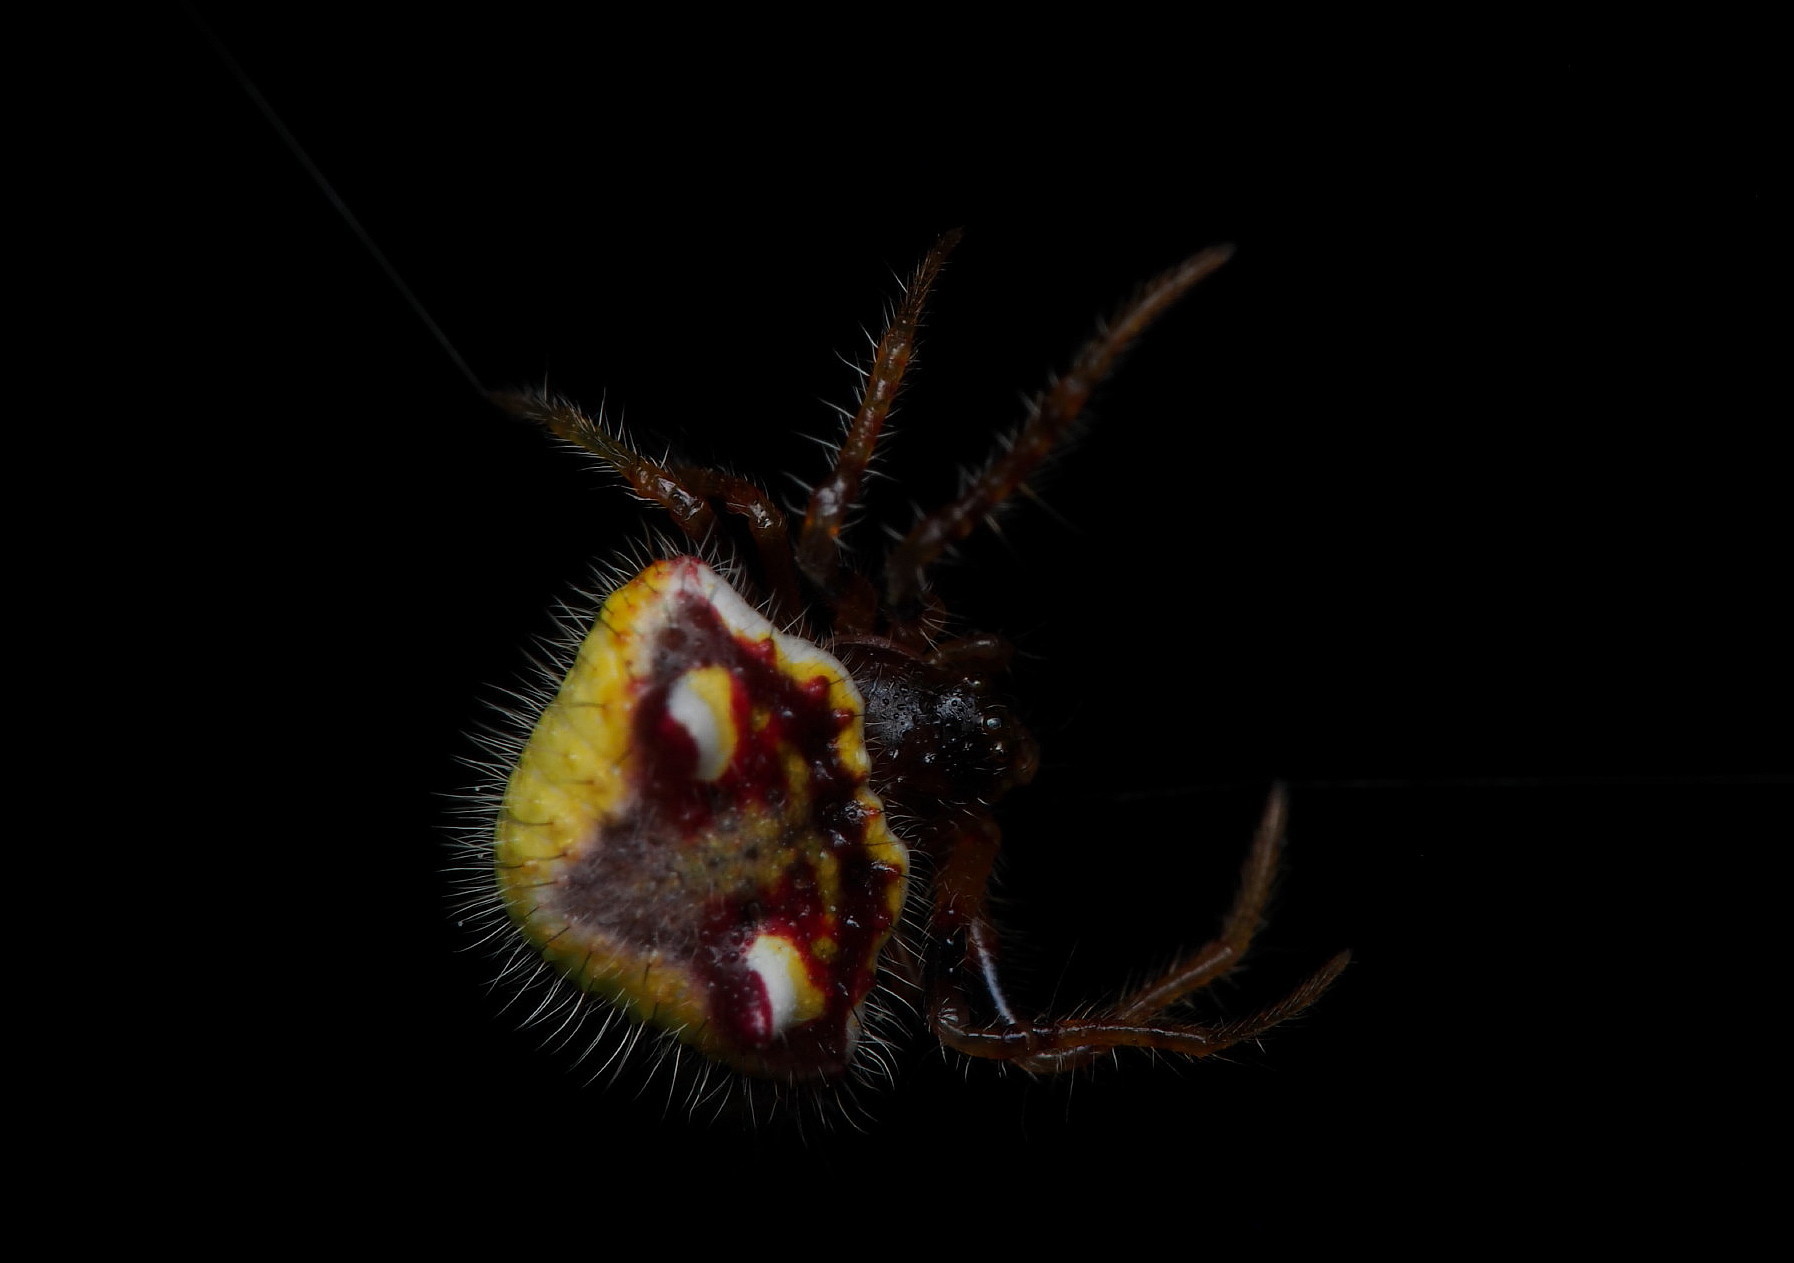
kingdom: Animalia
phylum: Arthropoda
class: Arachnida
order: Araneae
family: Araneidae
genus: Poecilopachys
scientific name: Poecilopachys australasia
